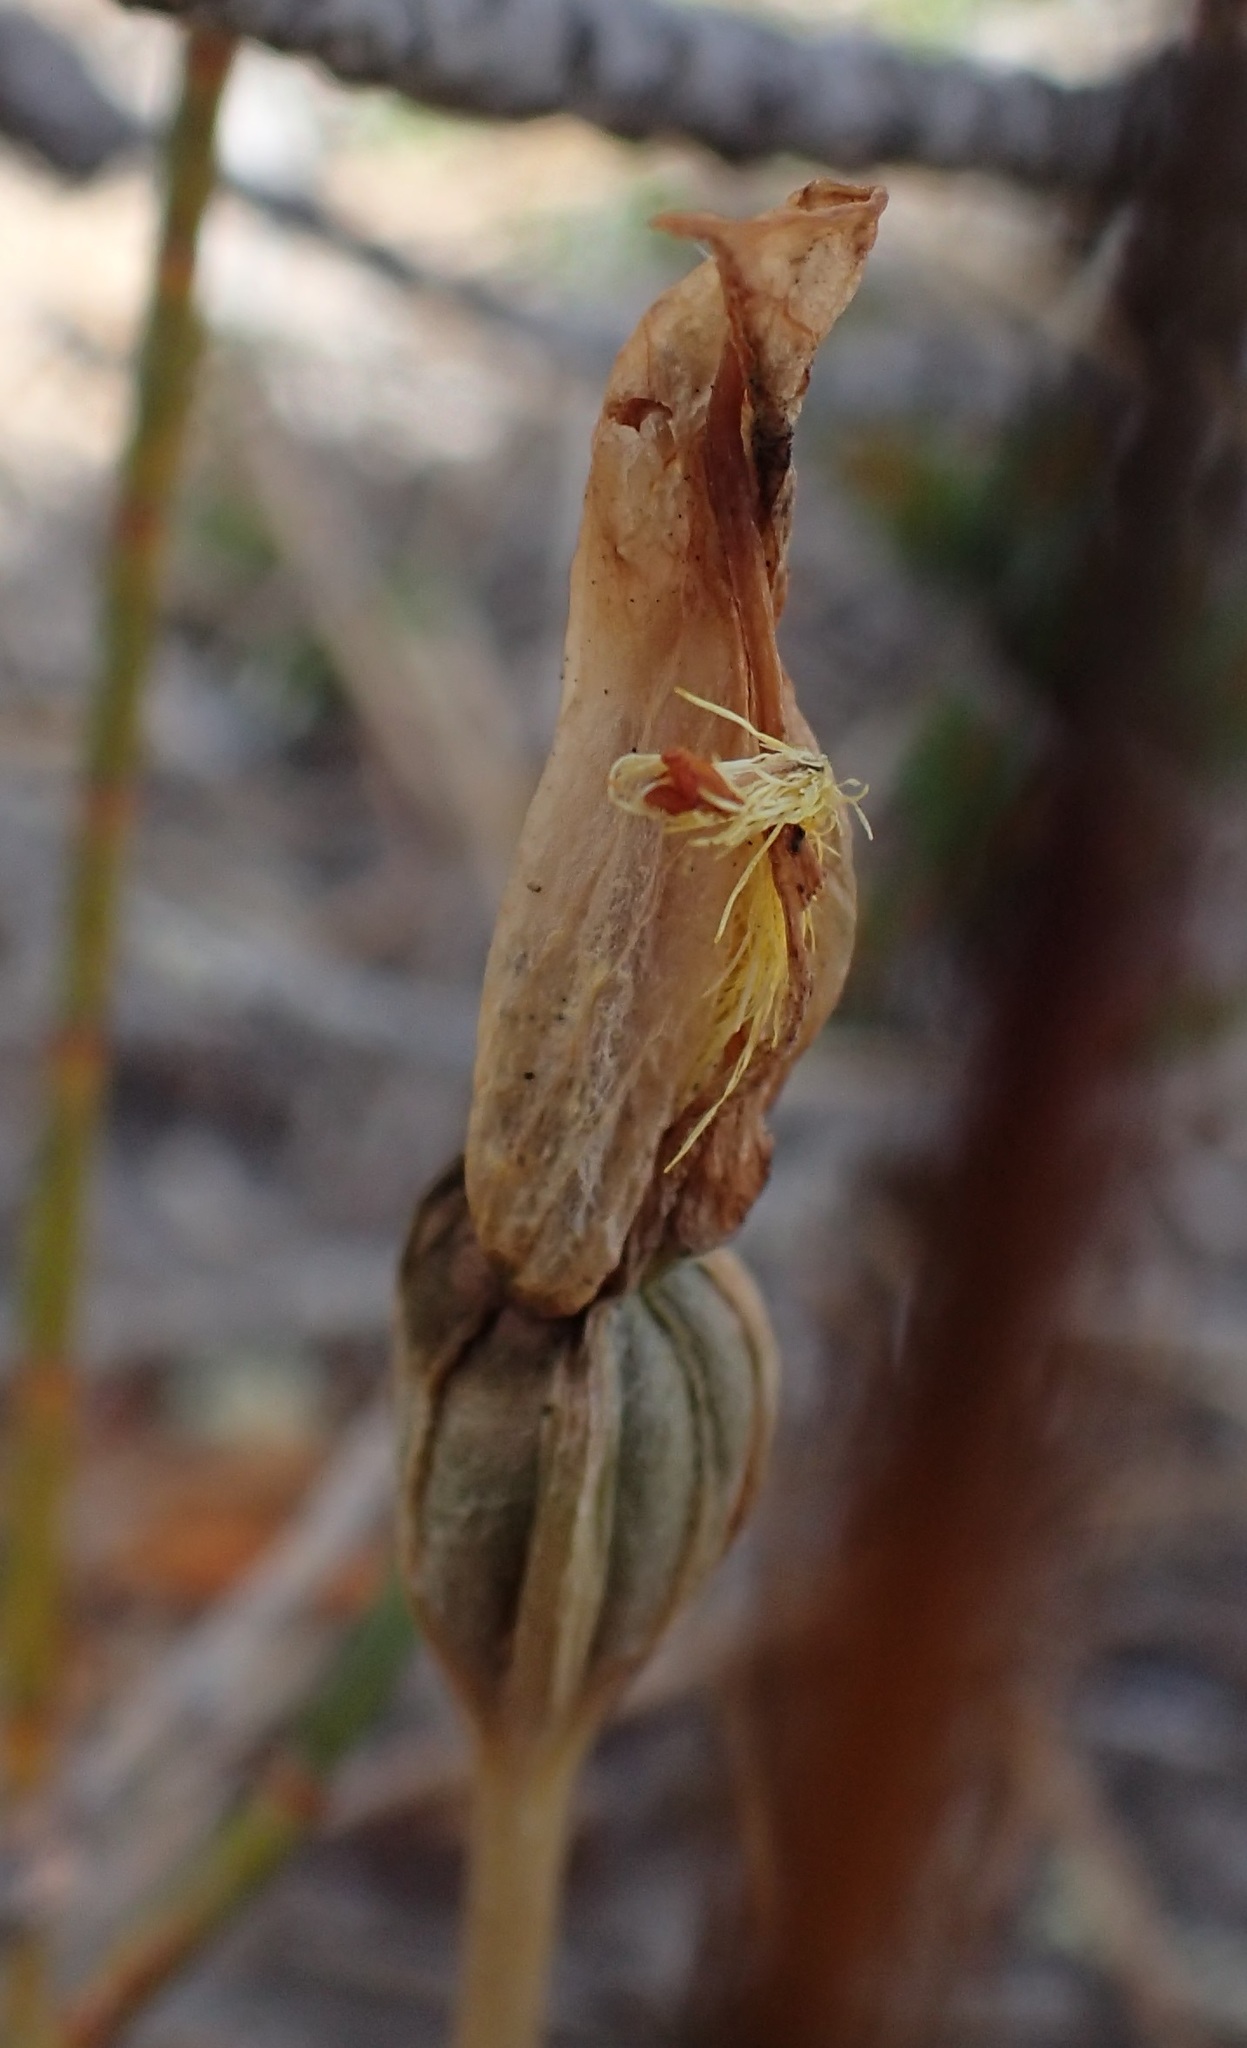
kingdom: Plantae
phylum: Tracheophyta
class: Liliopsida
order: Asparagales
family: Orchidaceae
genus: Pterostylis
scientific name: Pterostylis tasmanica
